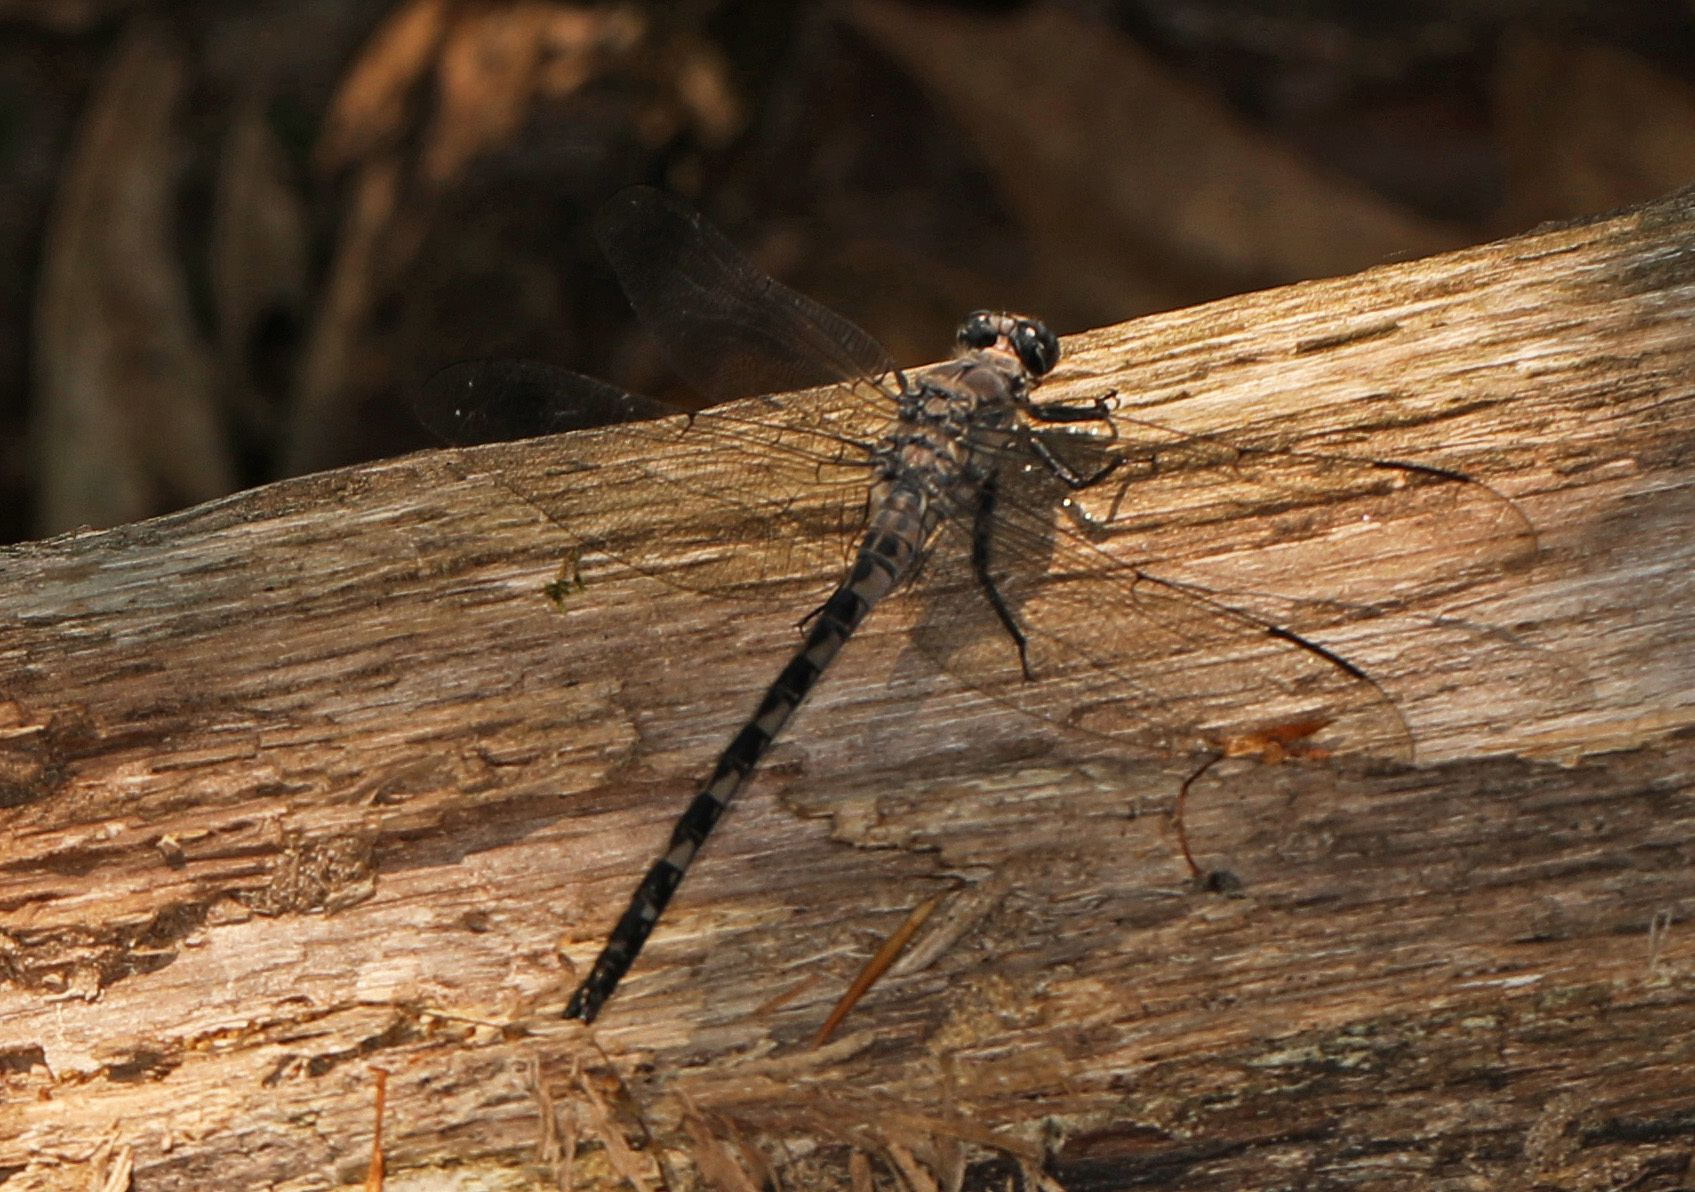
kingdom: Animalia
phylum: Arthropoda
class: Insecta
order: Odonata
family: Petaluridae
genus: Tachopteryx
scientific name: Tachopteryx thoreyi
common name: Gray petaltail
